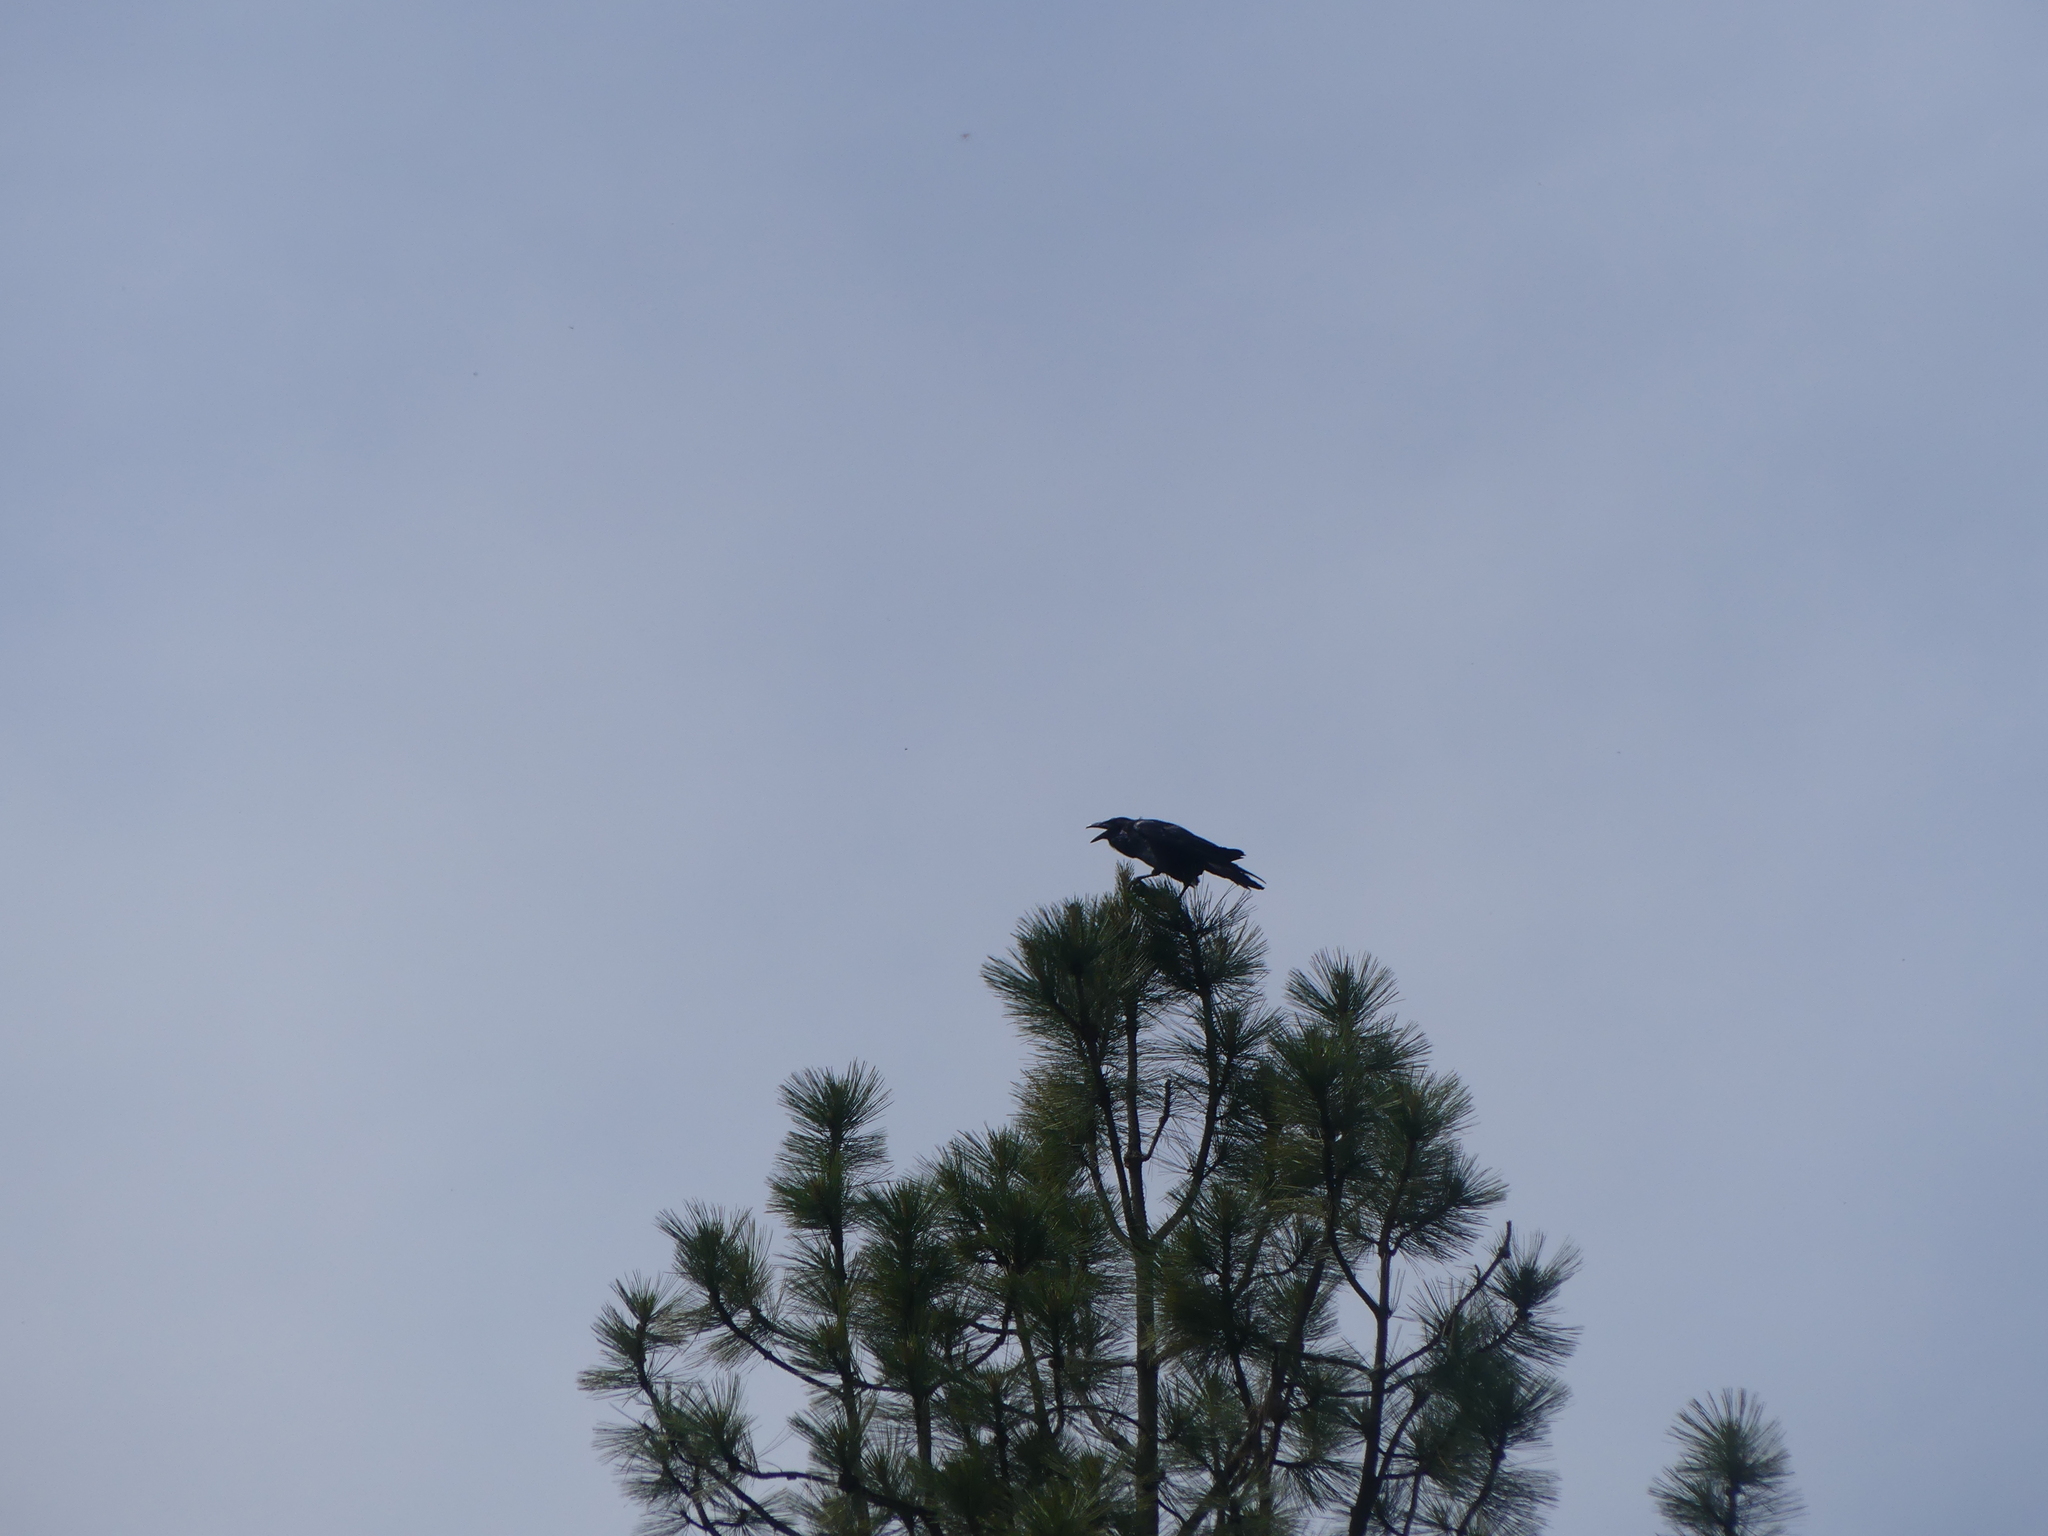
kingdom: Animalia
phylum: Chordata
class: Aves
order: Passeriformes
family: Corvidae
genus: Corvus
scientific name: Corvus corax
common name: Common raven
